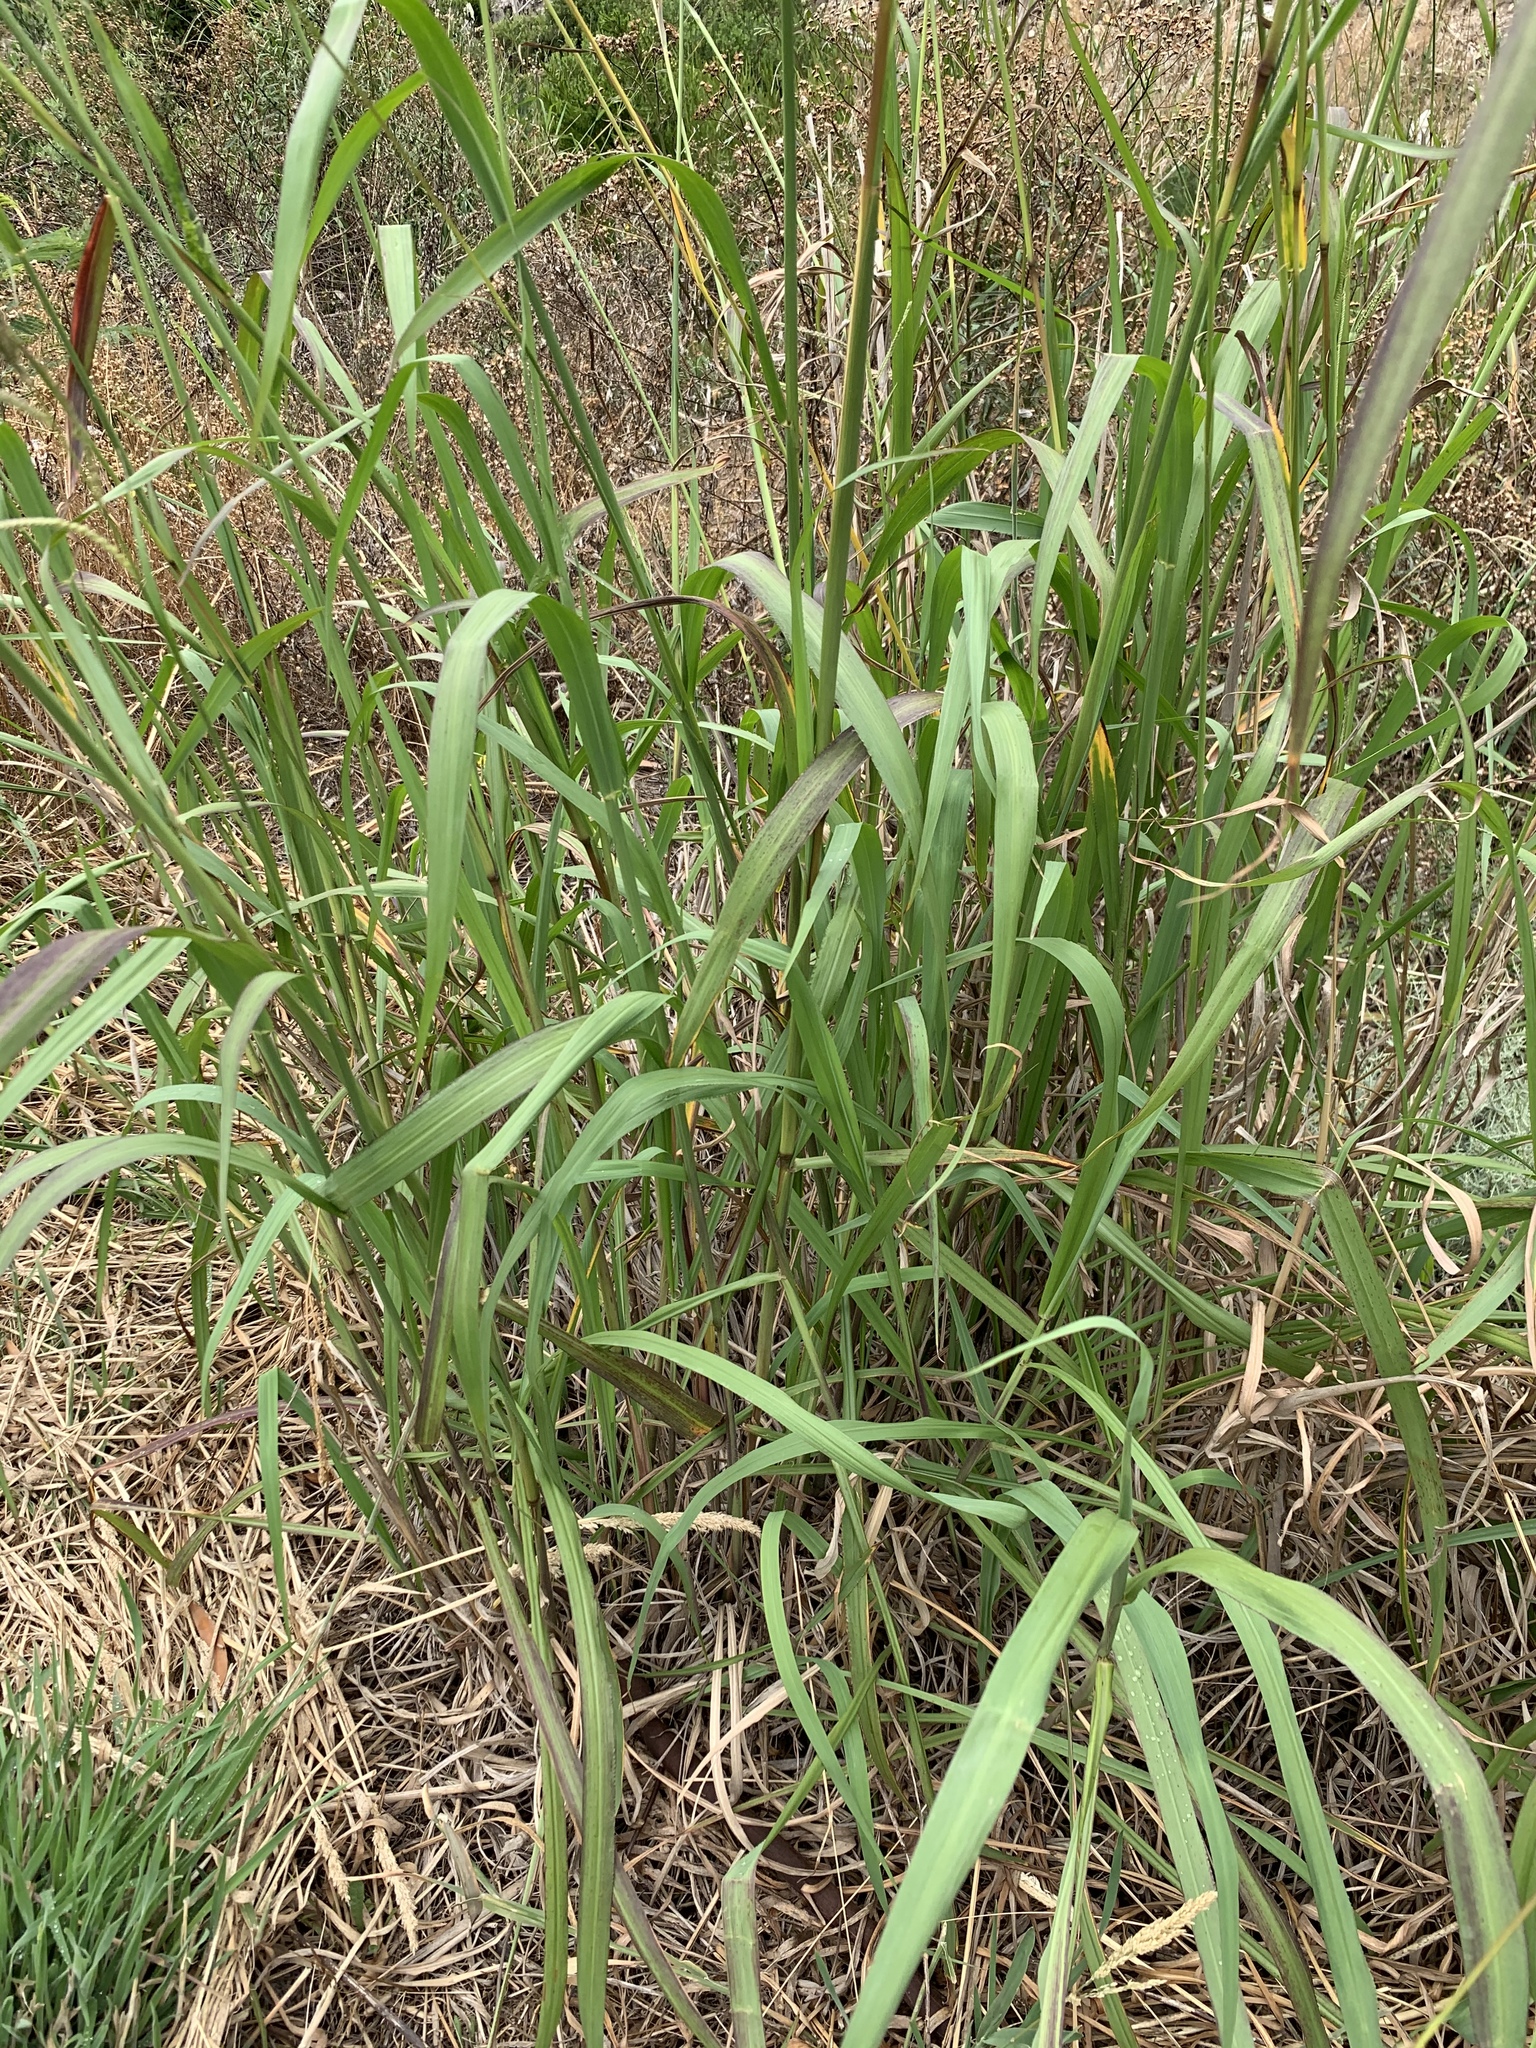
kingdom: Plantae
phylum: Tracheophyta
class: Liliopsida
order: Poales
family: Poaceae
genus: Paspalum
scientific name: Paspalum urvillei
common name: Vasey's grass
